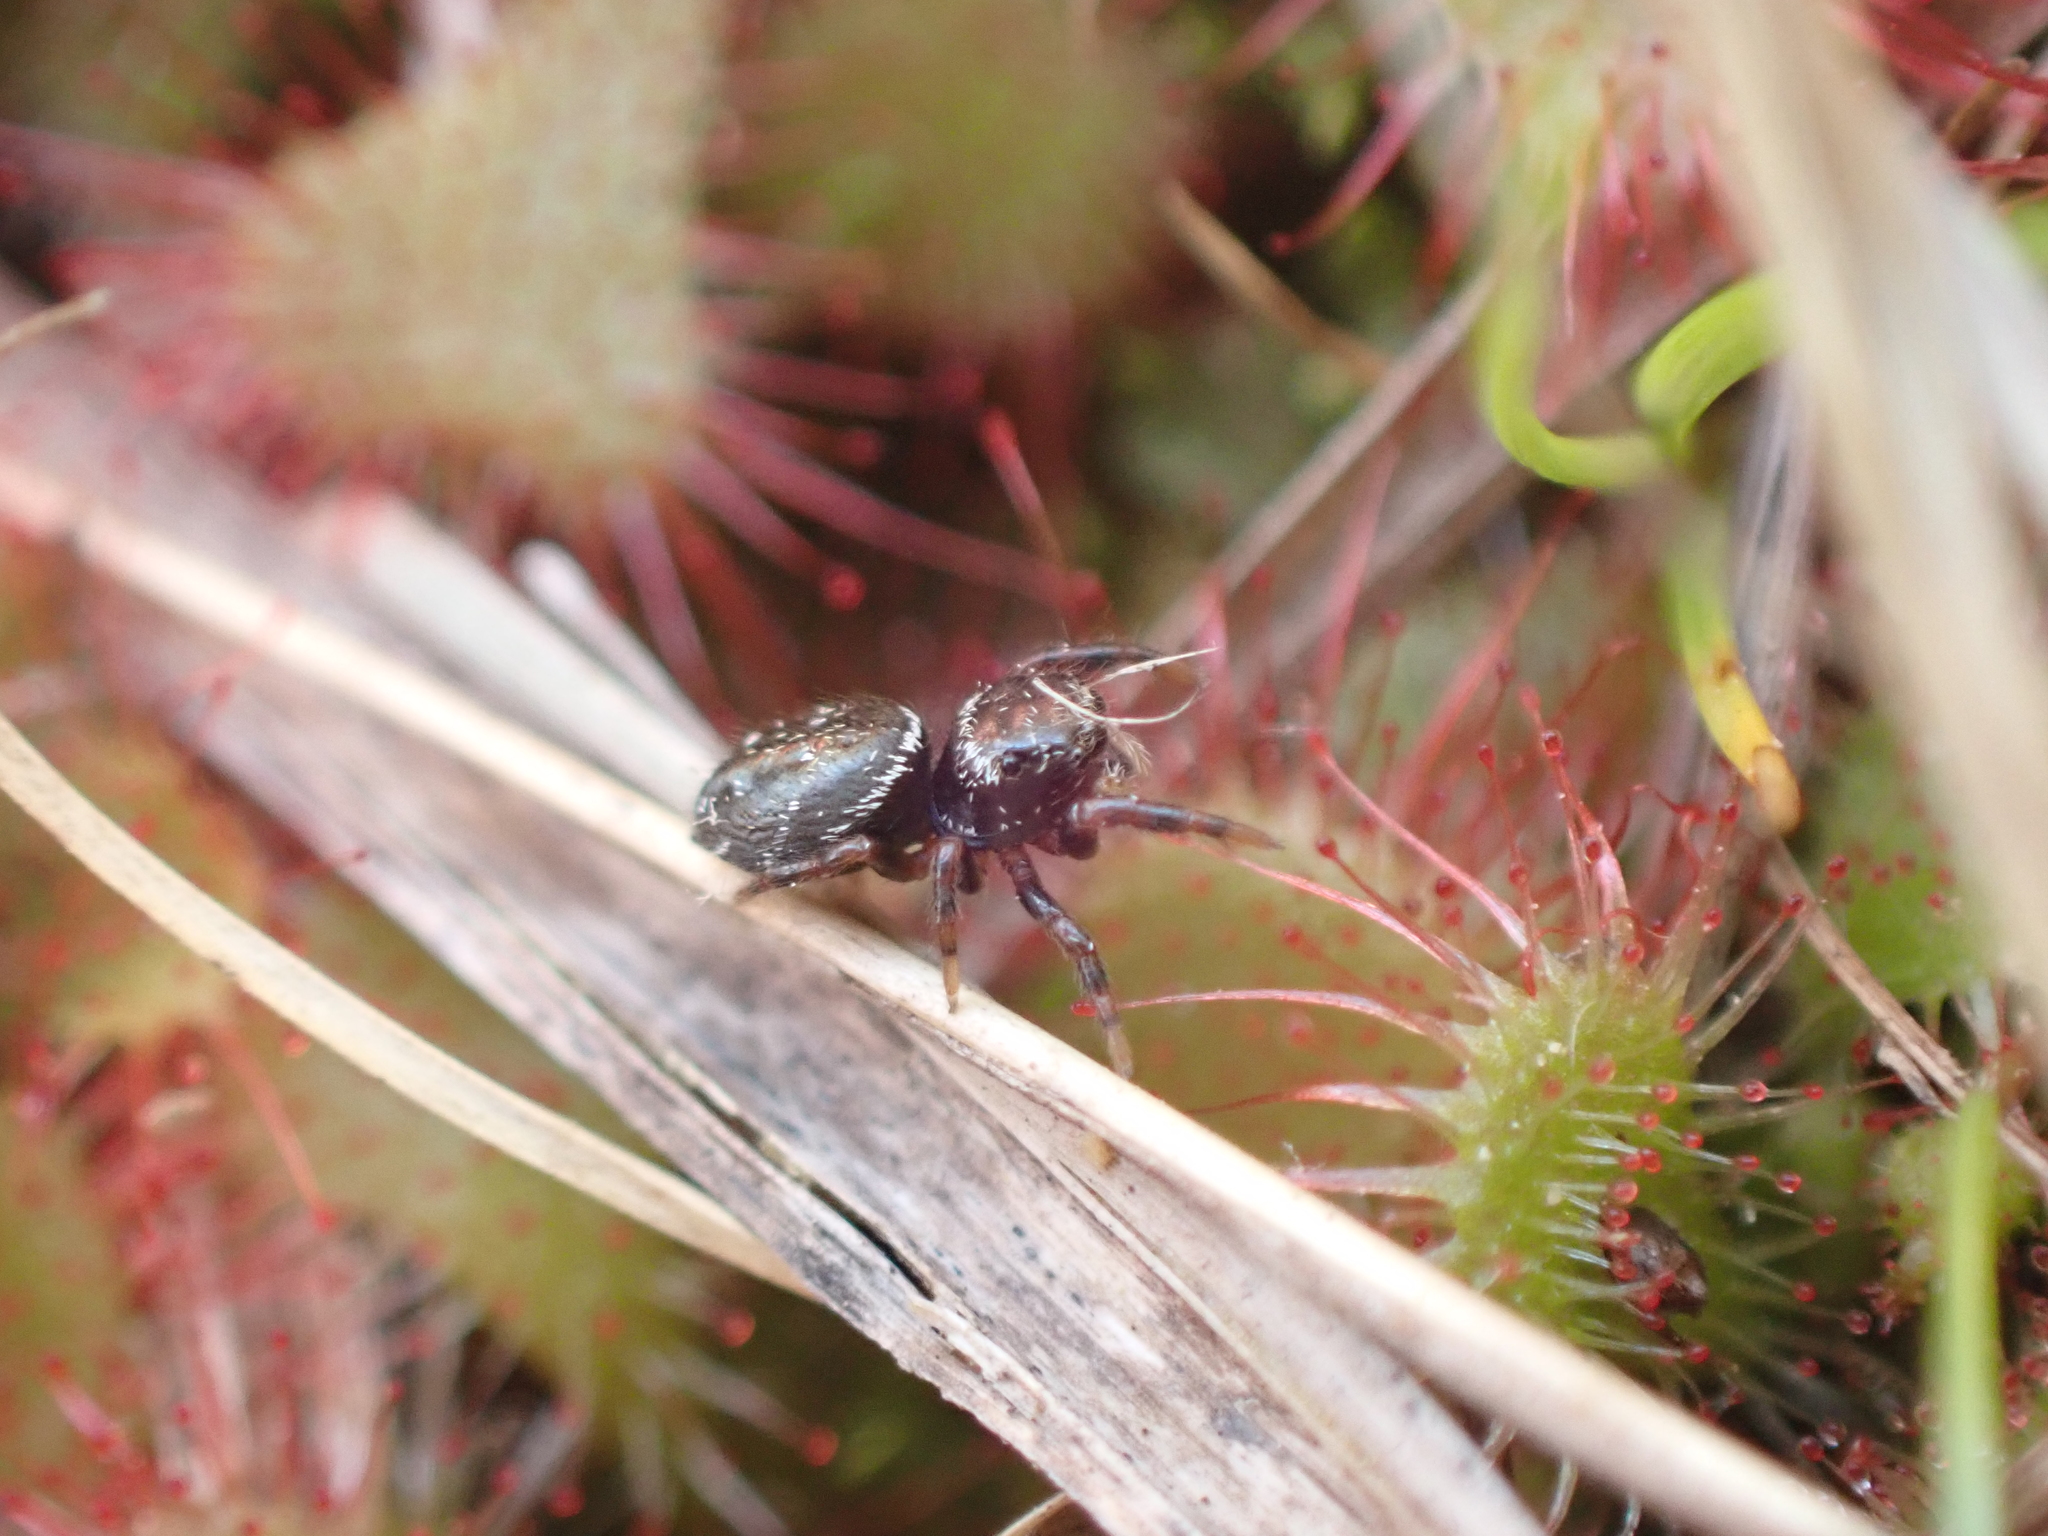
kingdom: Animalia
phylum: Arthropoda
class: Arachnida
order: Araneae
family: Salticidae
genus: Phidippus
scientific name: Phidippus clarus
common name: Brilliant jumping spider
